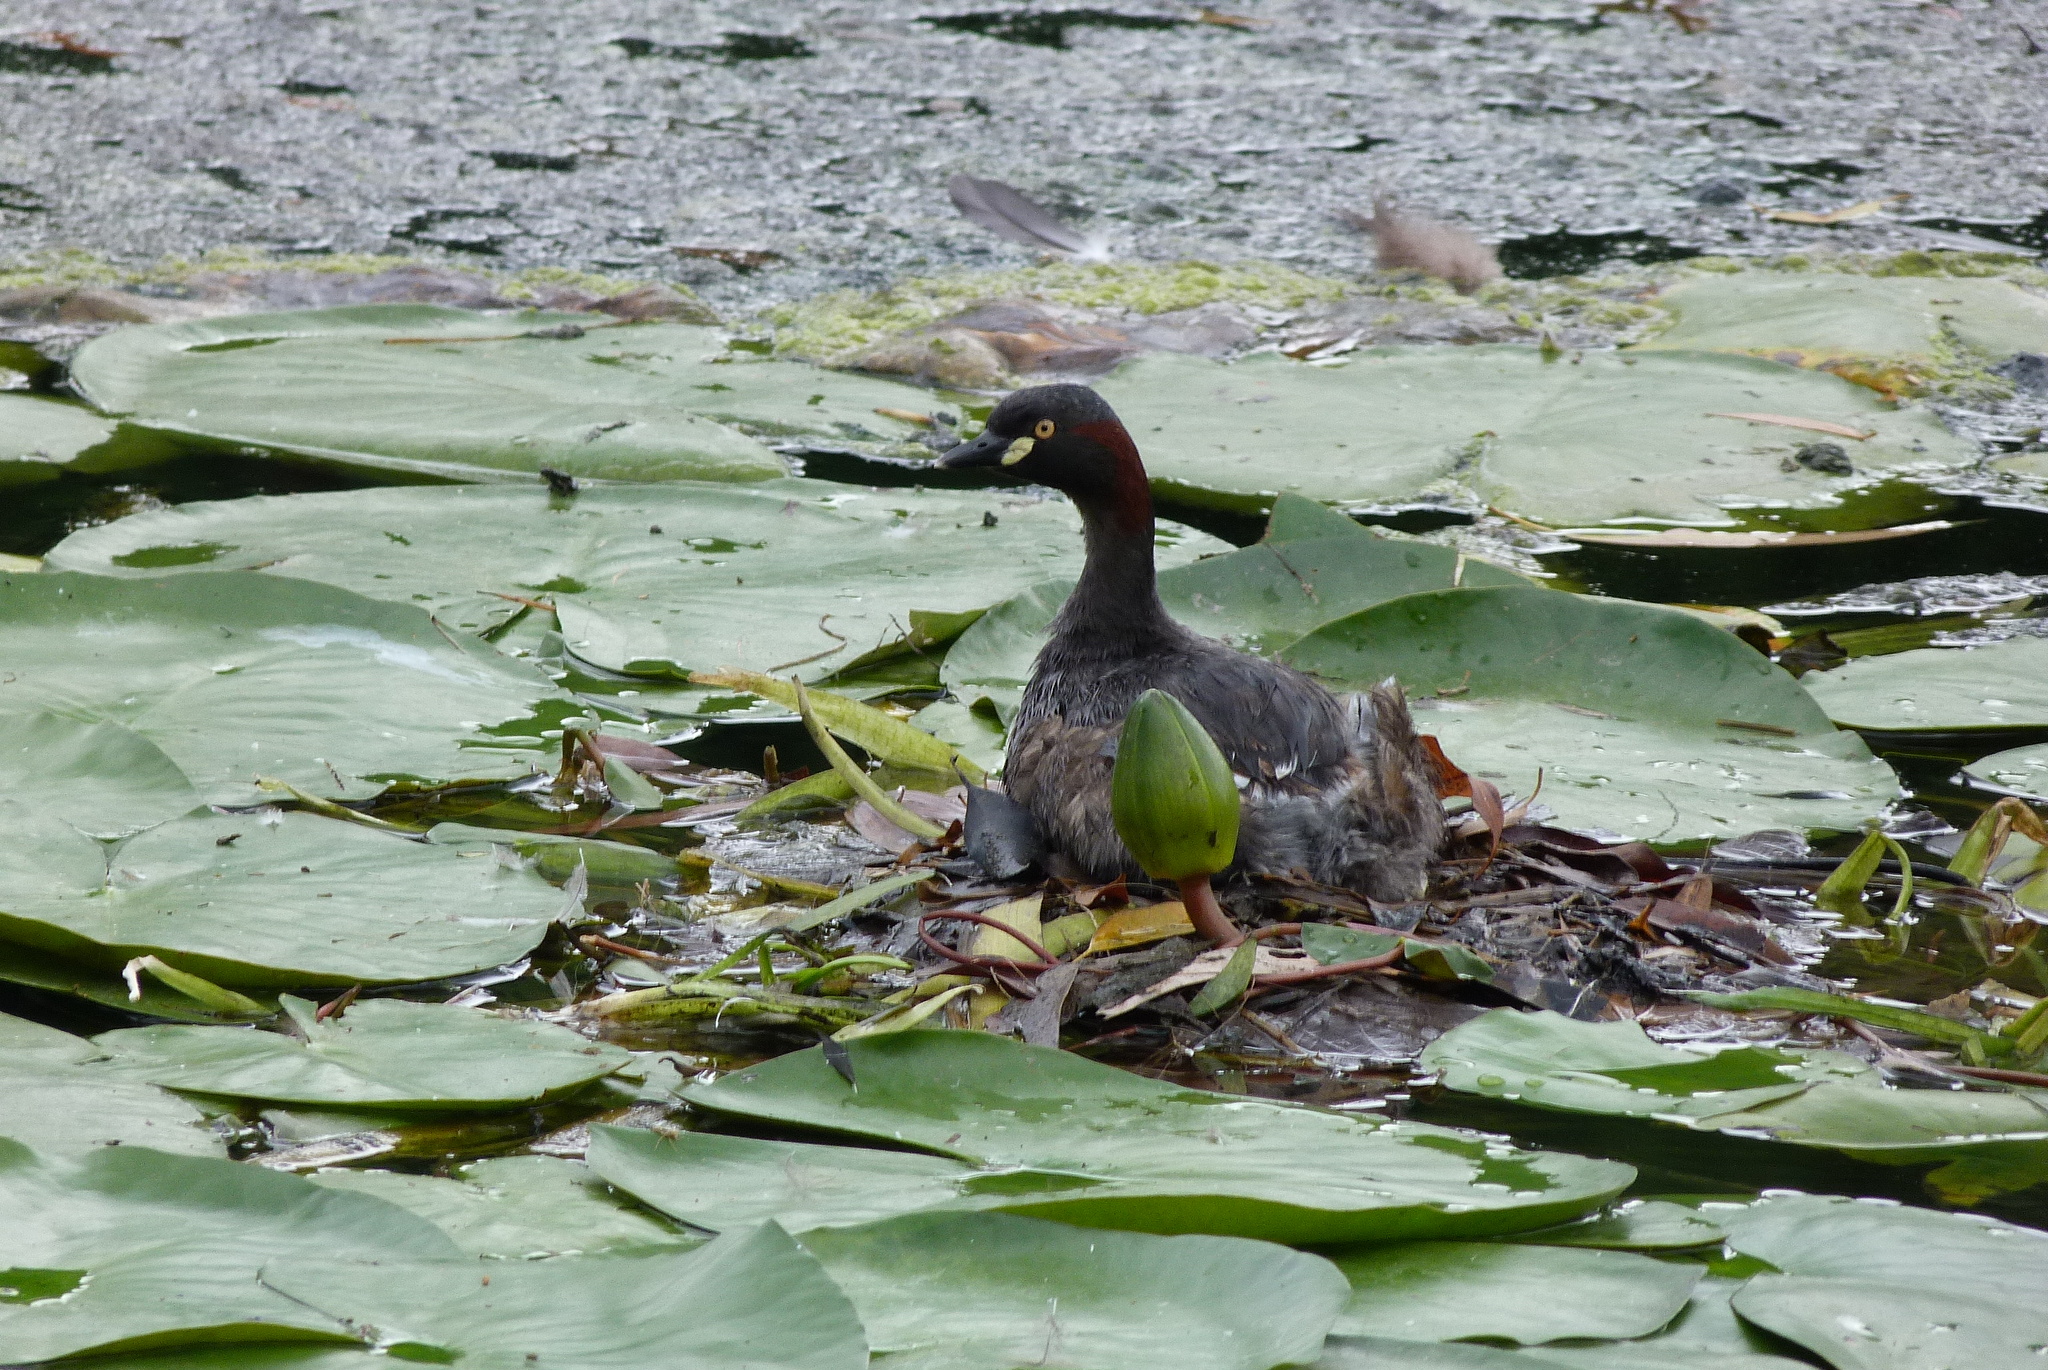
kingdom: Animalia
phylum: Chordata
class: Aves
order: Podicipediformes
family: Podicipedidae
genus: Tachybaptus
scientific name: Tachybaptus novaehollandiae
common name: Australasian grebe
